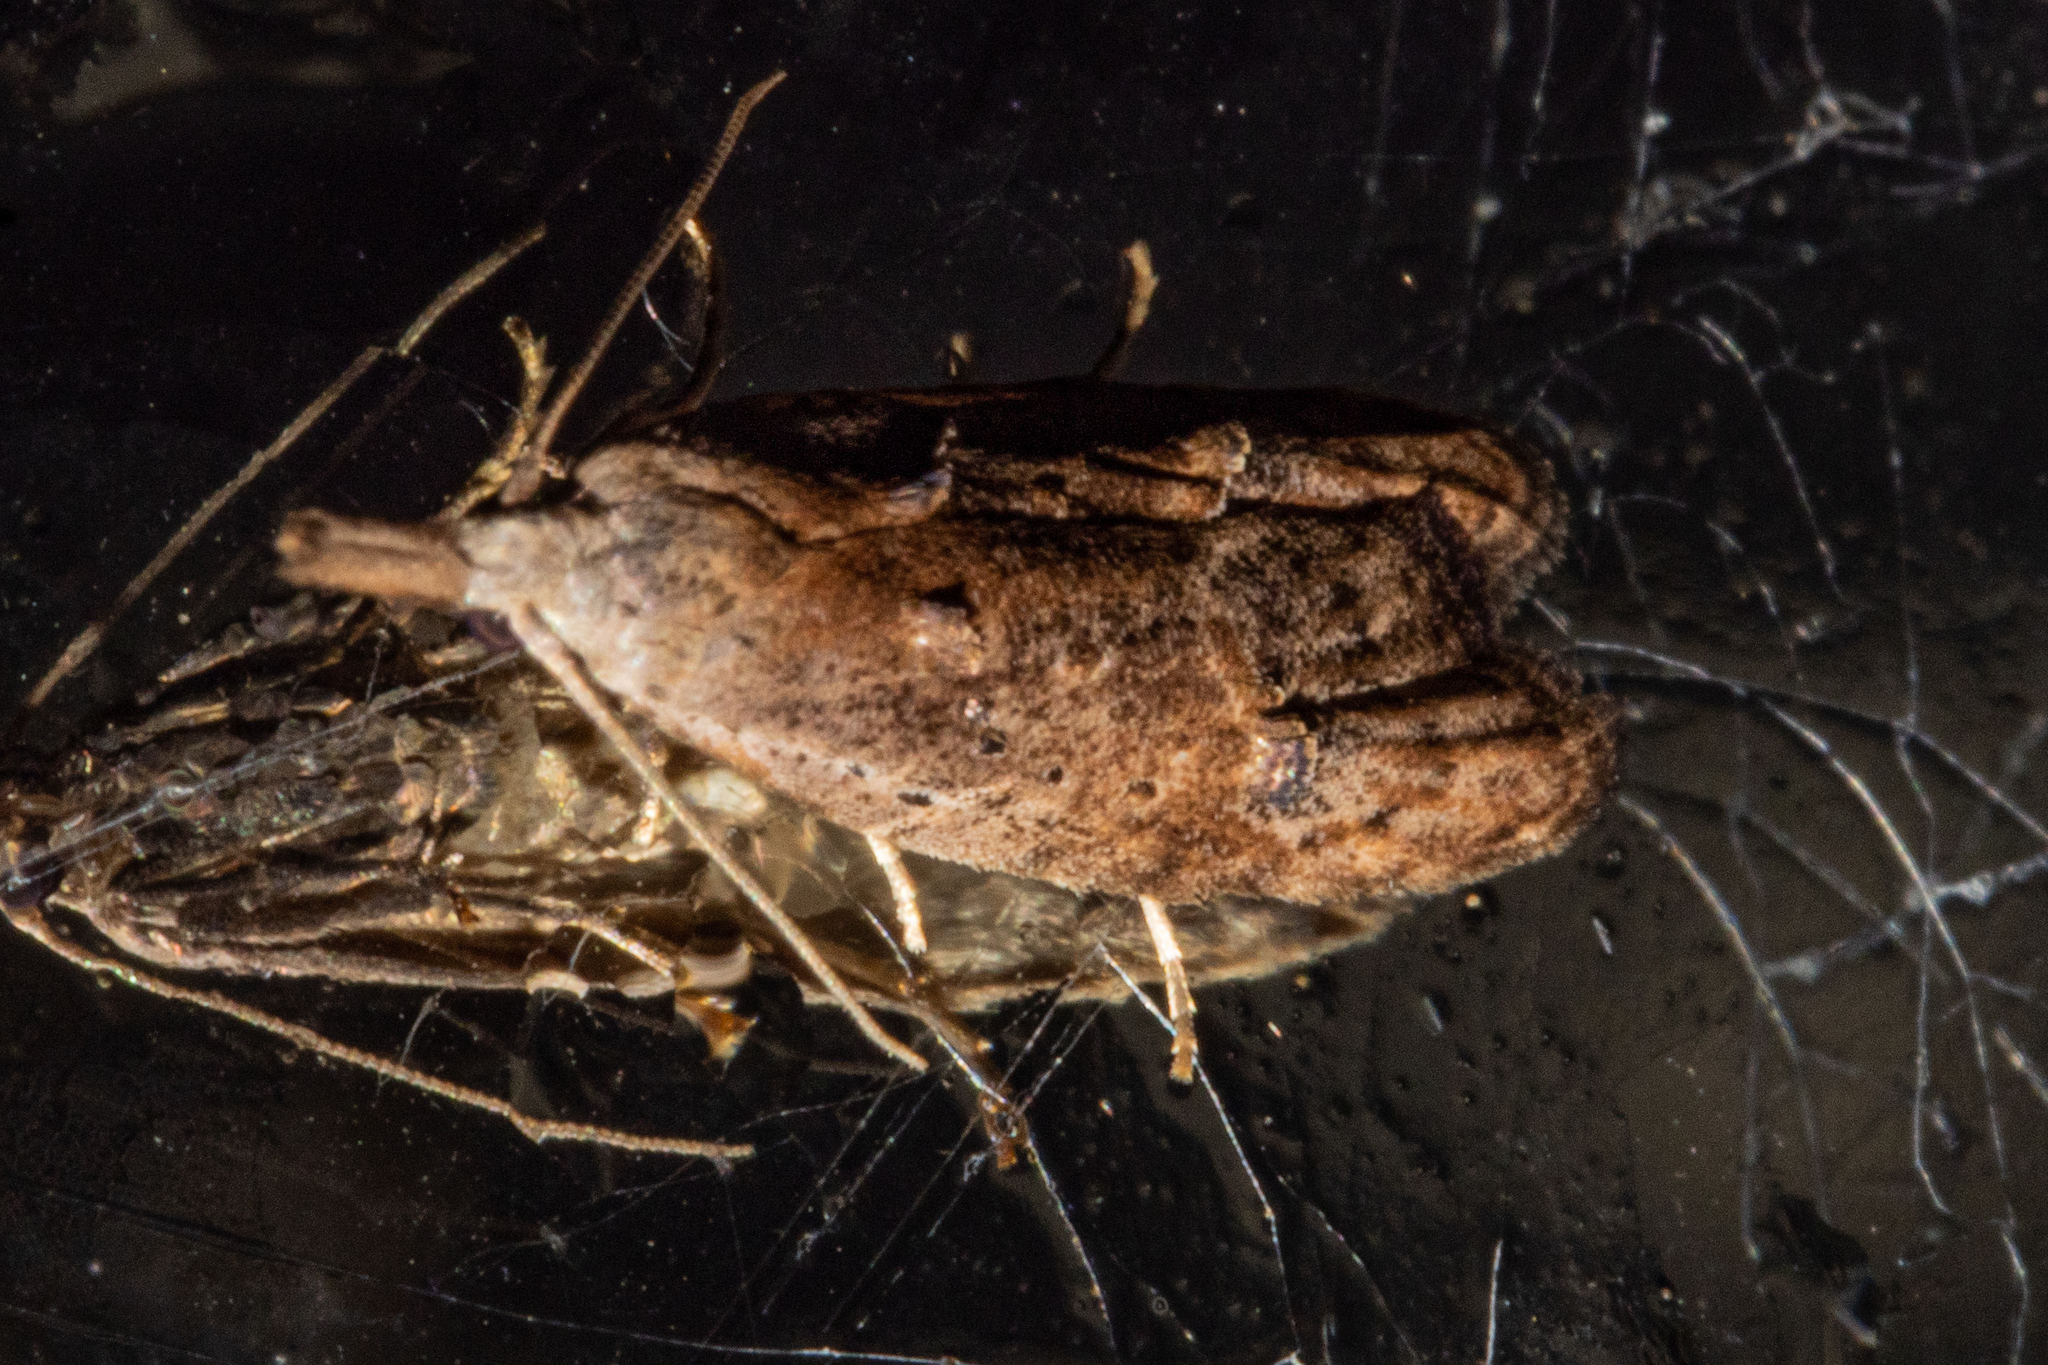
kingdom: Animalia
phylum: Arthropoda
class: Insecta
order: Lepidoptera
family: Carposinidae
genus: Carposina
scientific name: Carposina rubophaga
